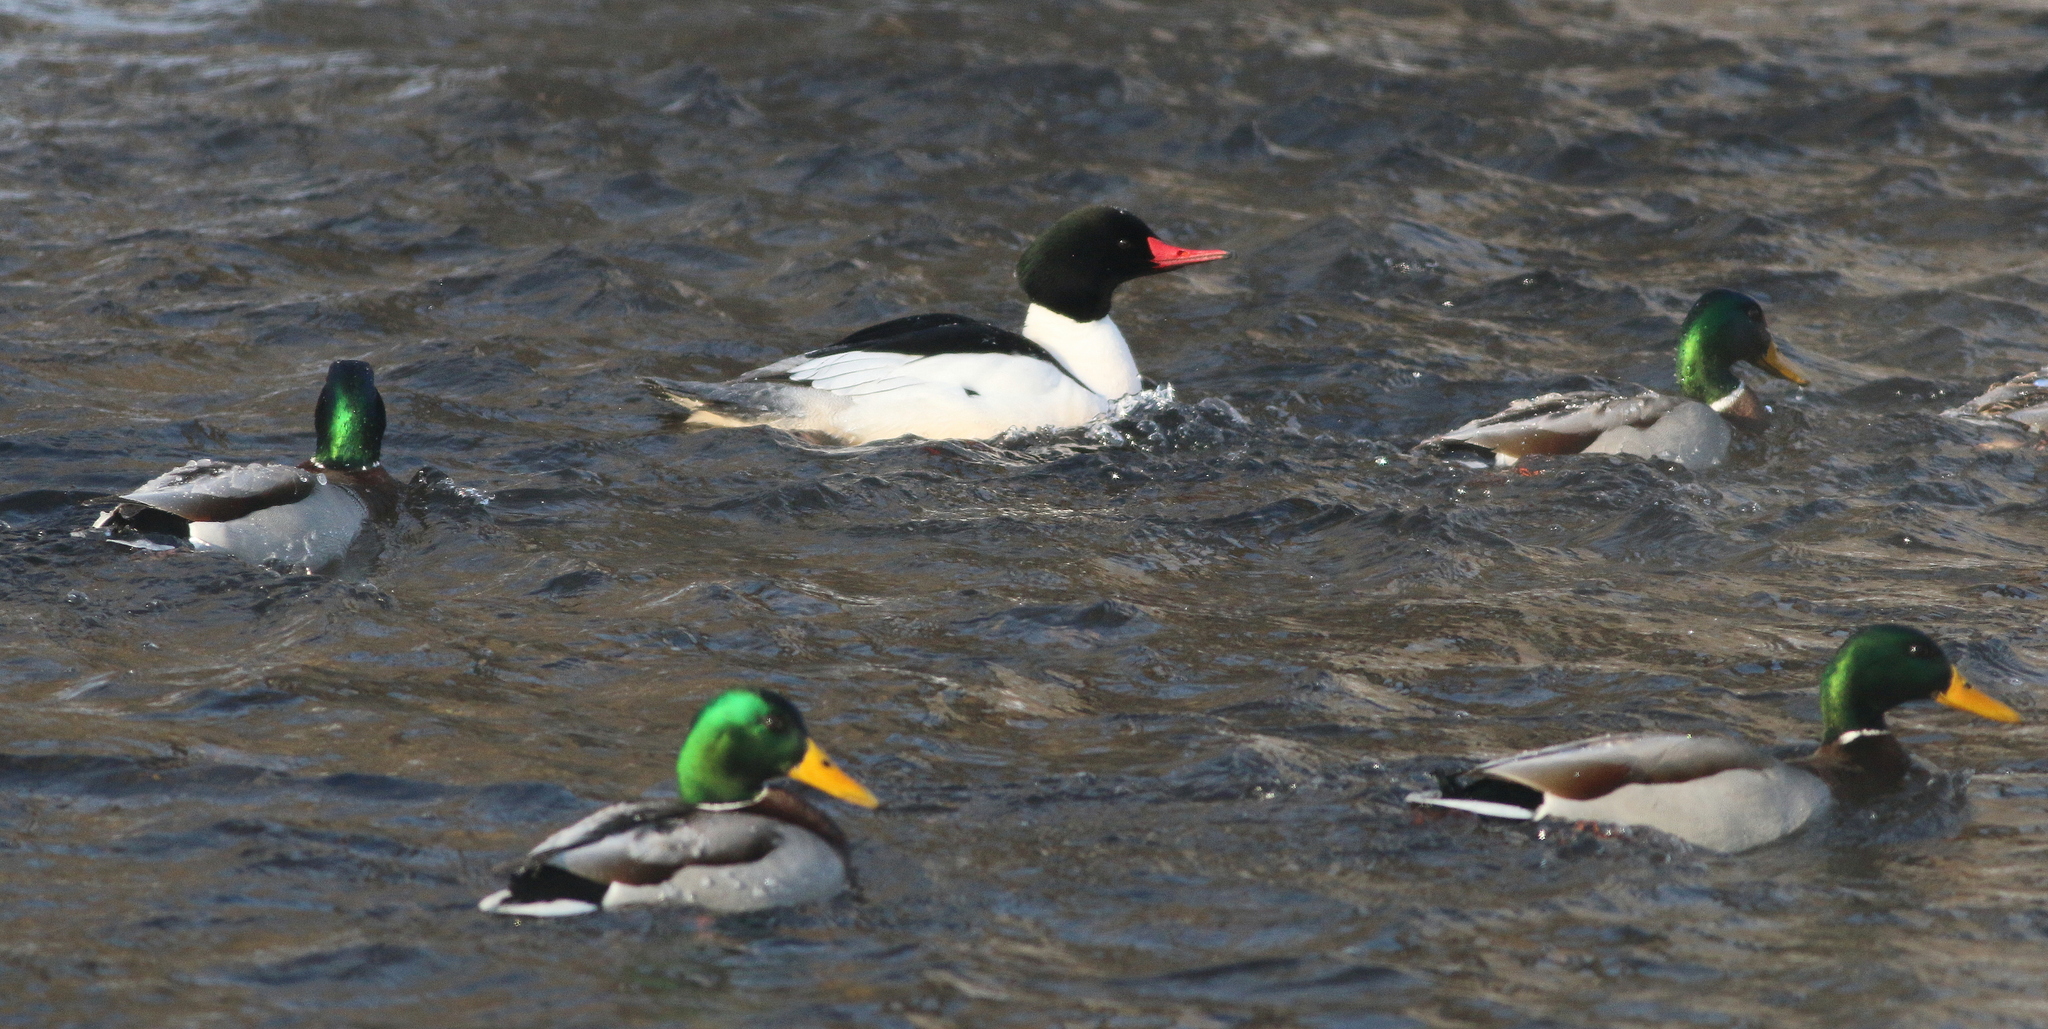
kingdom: Animalia
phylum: Chordata
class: Aves
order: Anseriformes
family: Anatidae
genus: Anas
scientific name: Anas platyrhynchos
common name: Mallard
